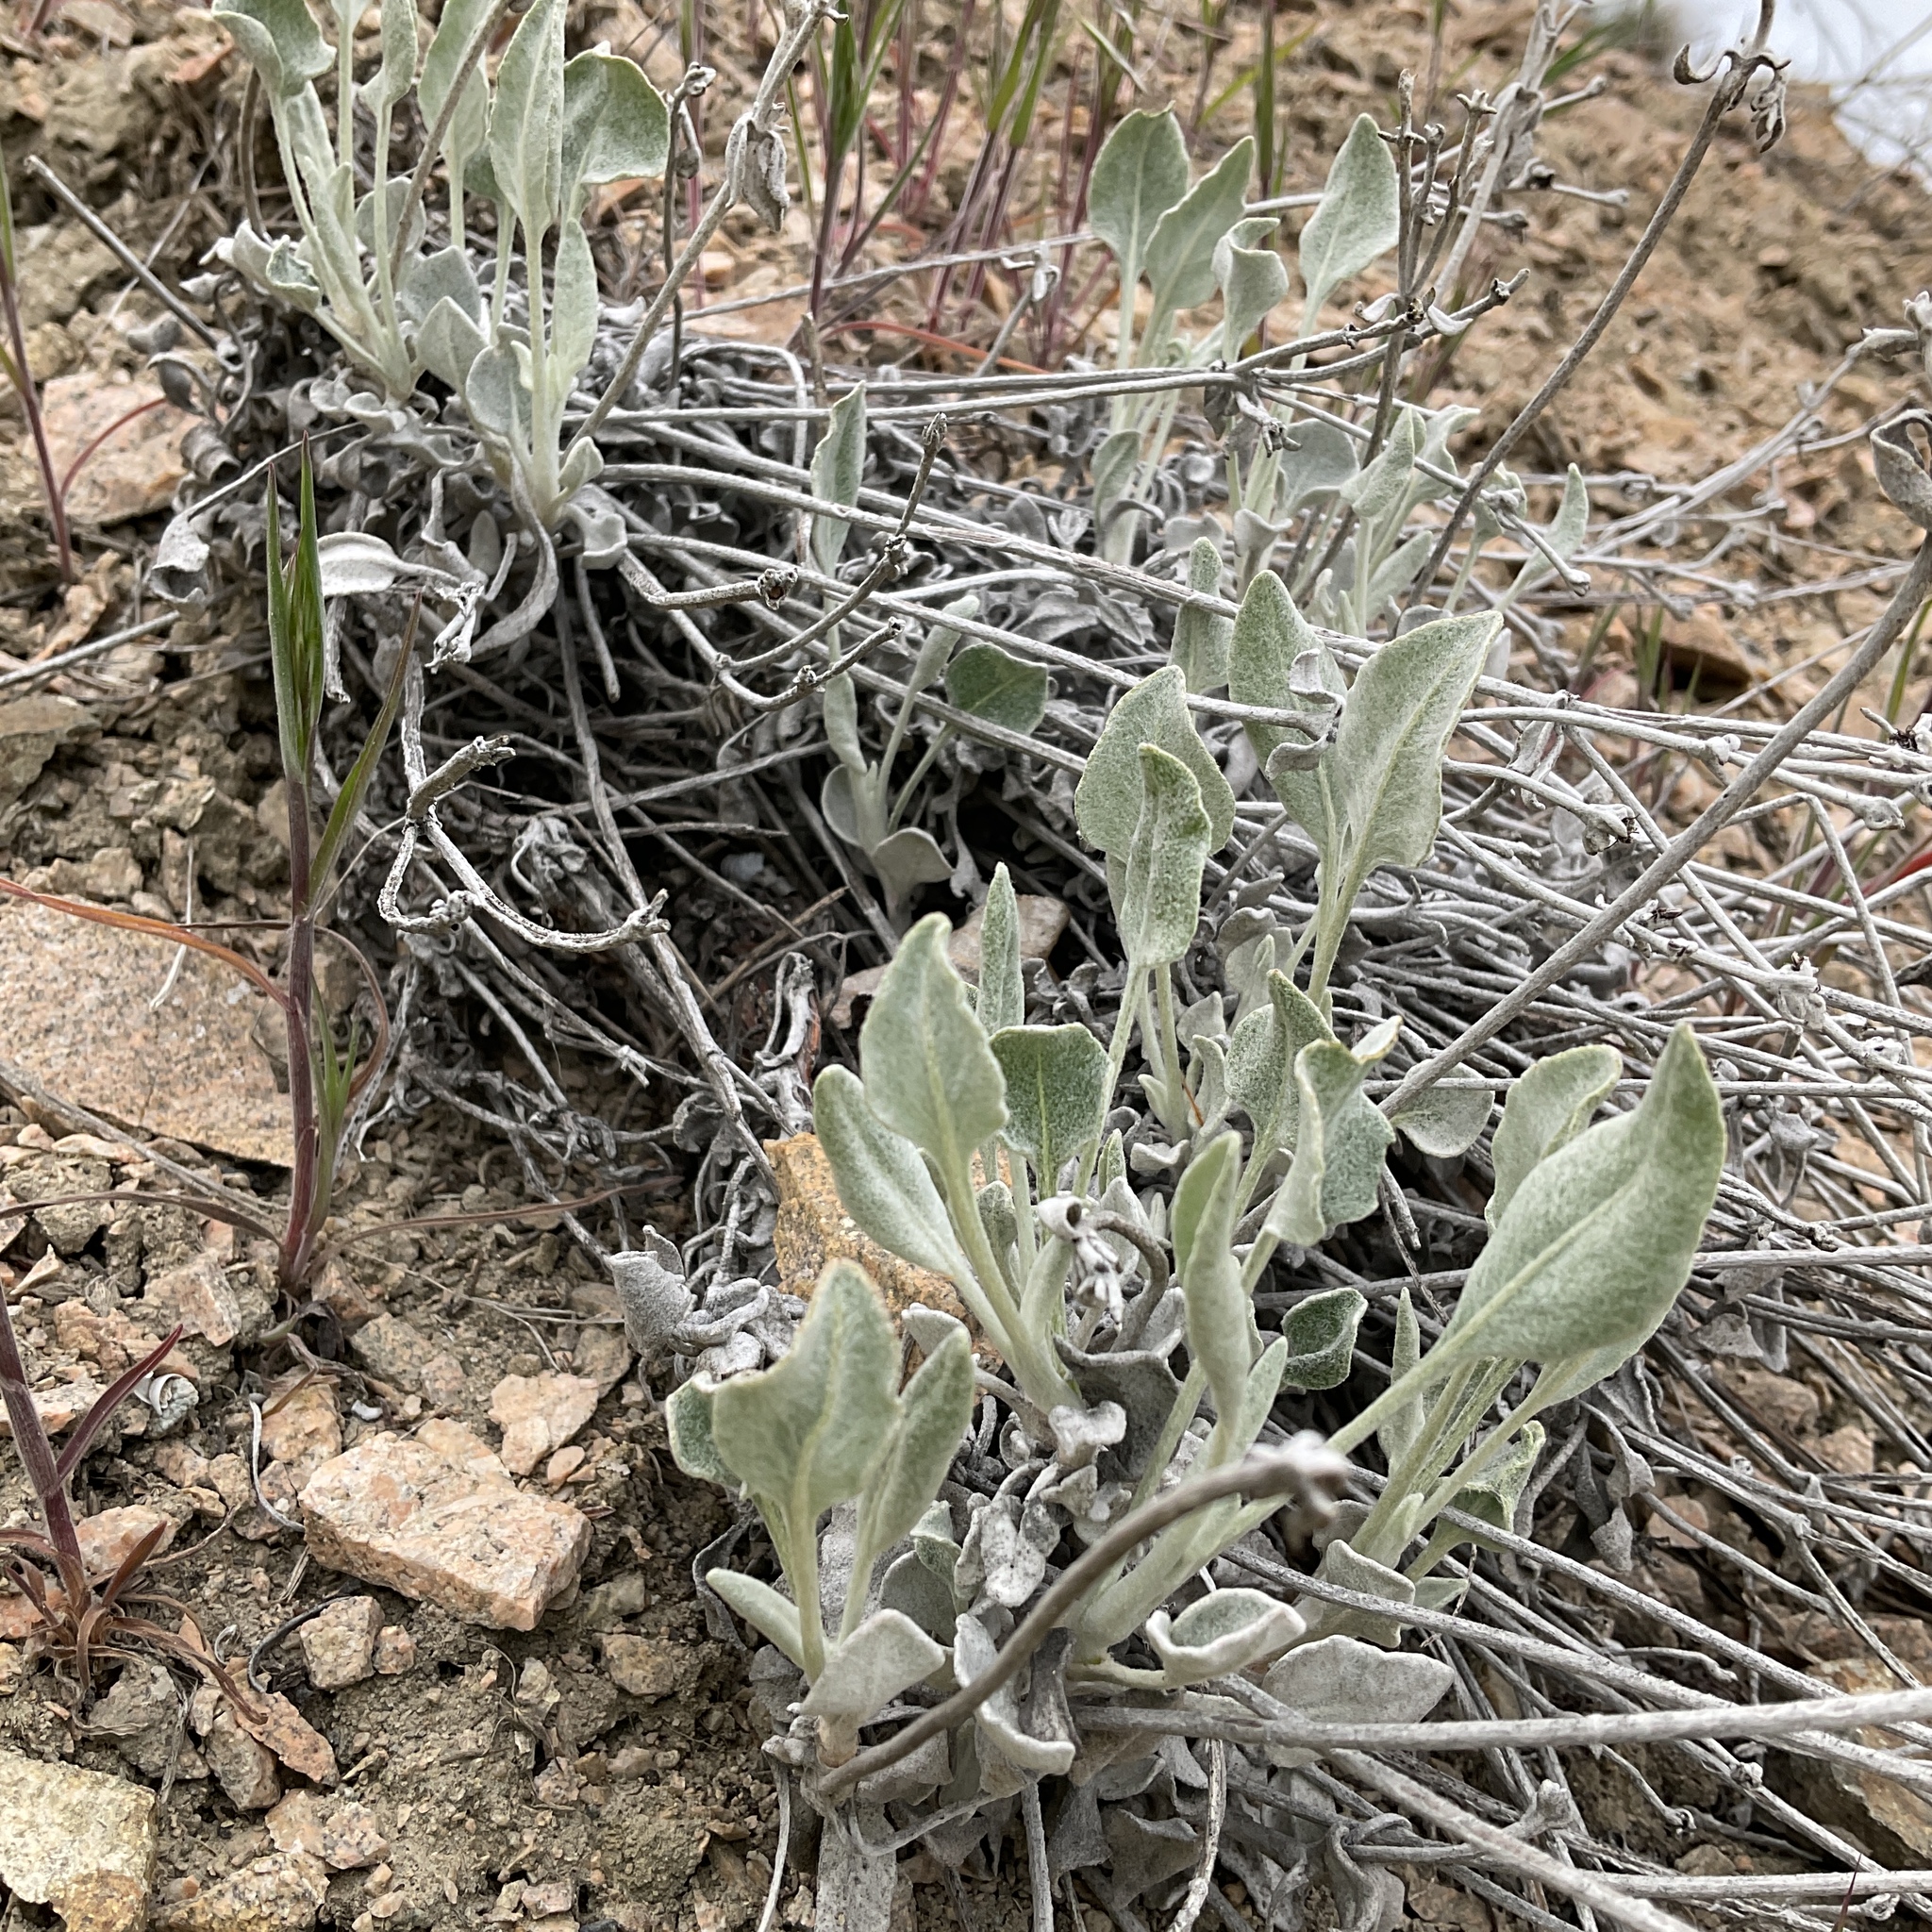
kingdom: Plantae
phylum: Tracheophyta
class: Magnoliopsida
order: Caryophyllales
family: Polygonaceae
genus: Eriogonum
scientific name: Eriogonum niveum
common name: Snow wild buckwheat
